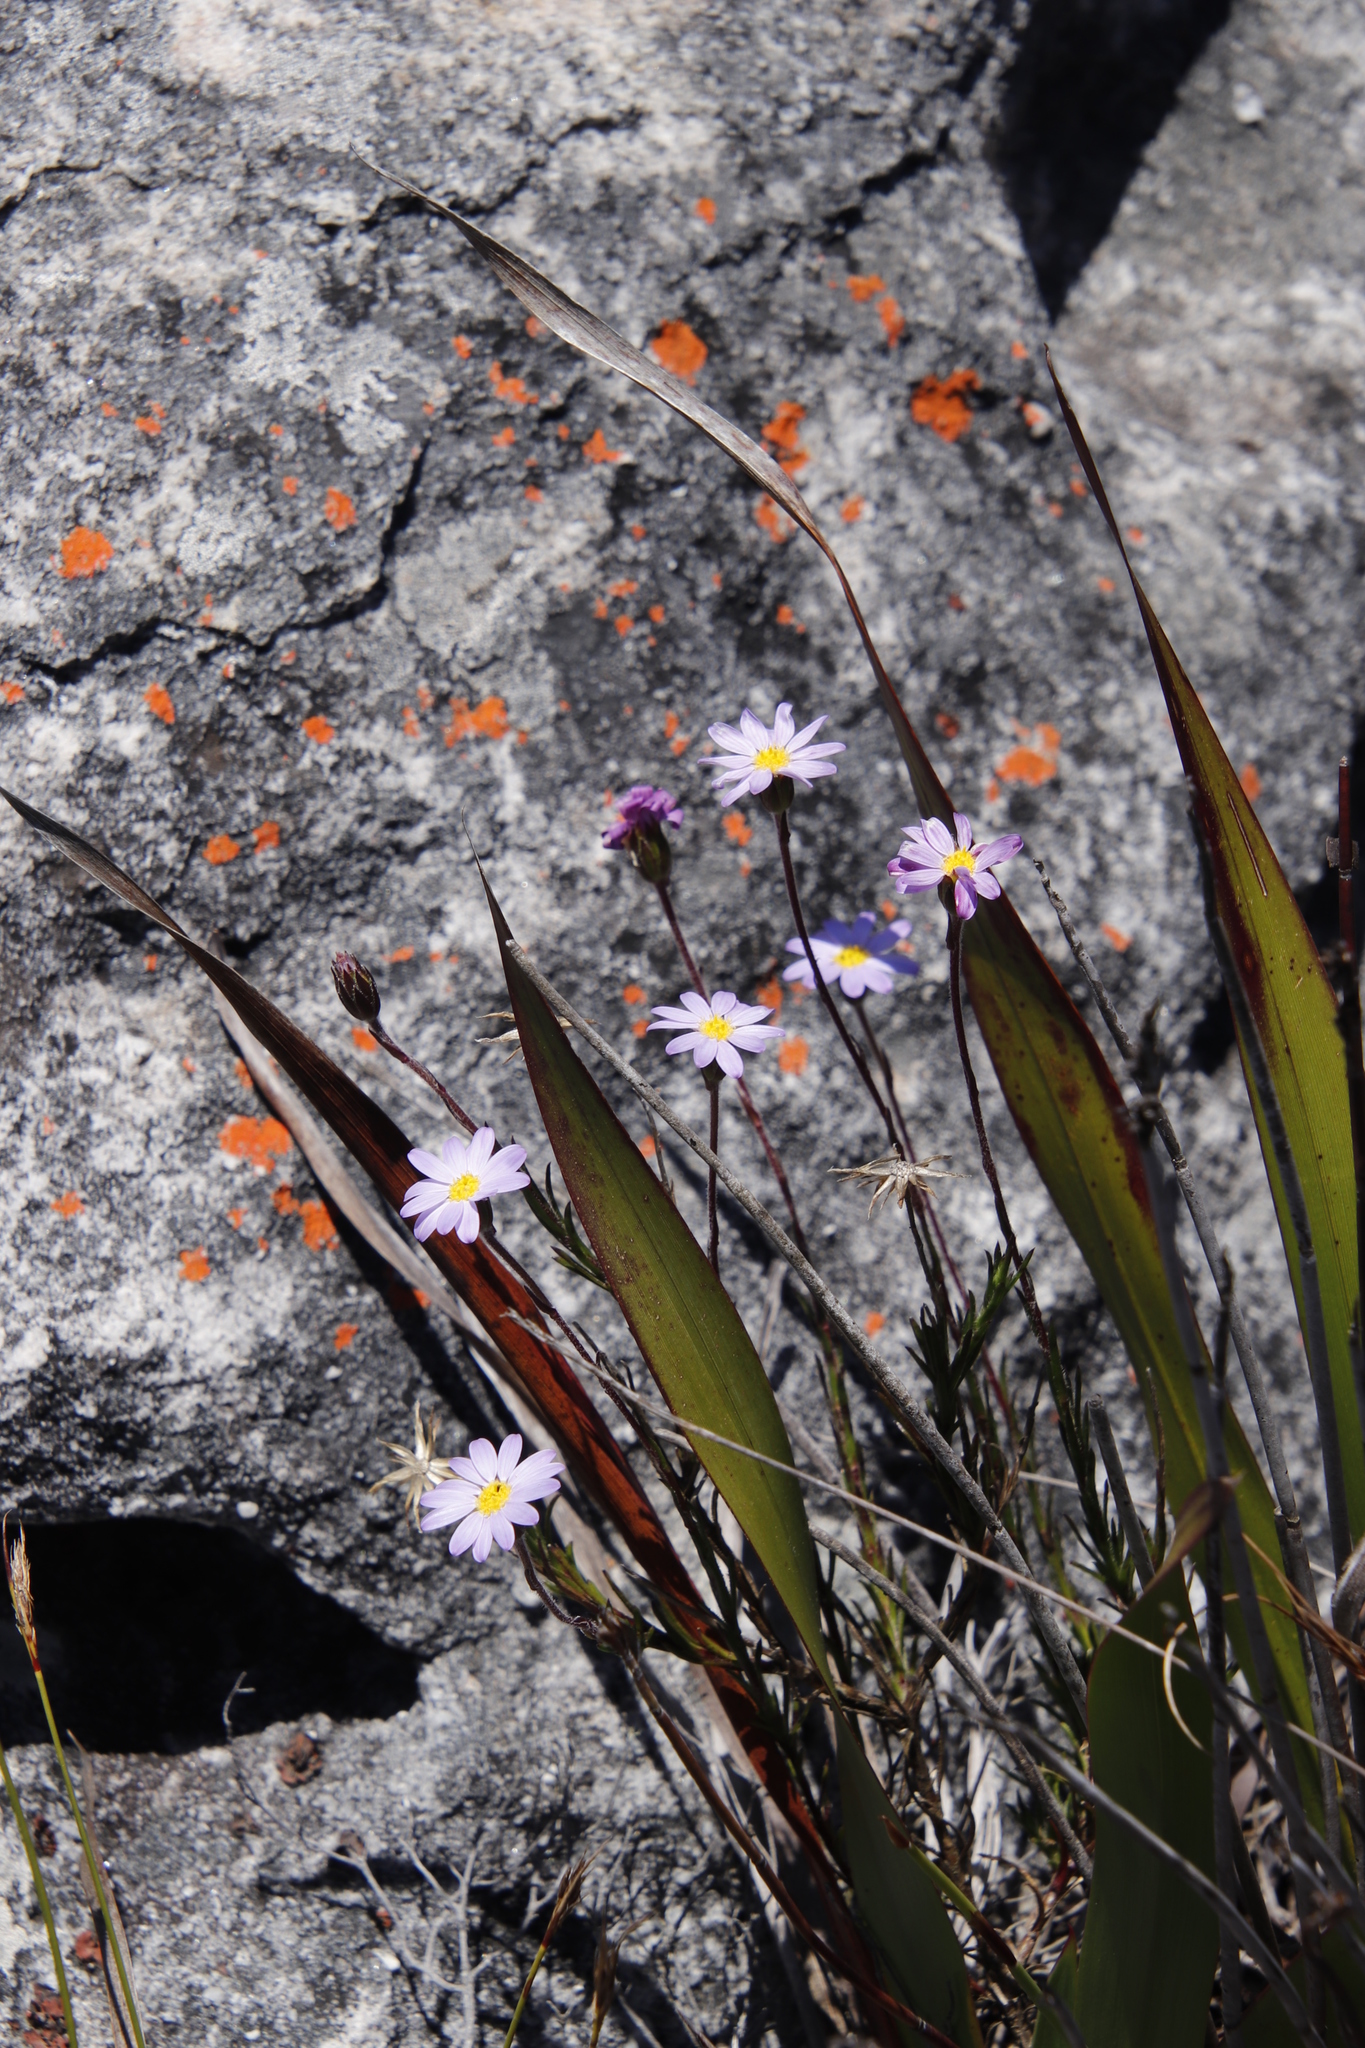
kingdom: Plantae
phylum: Tracheophyta
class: Magnoliopsida
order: Asterales
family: Asteraceae
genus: Zyrphelis
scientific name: Zyrphelis taxifolia
